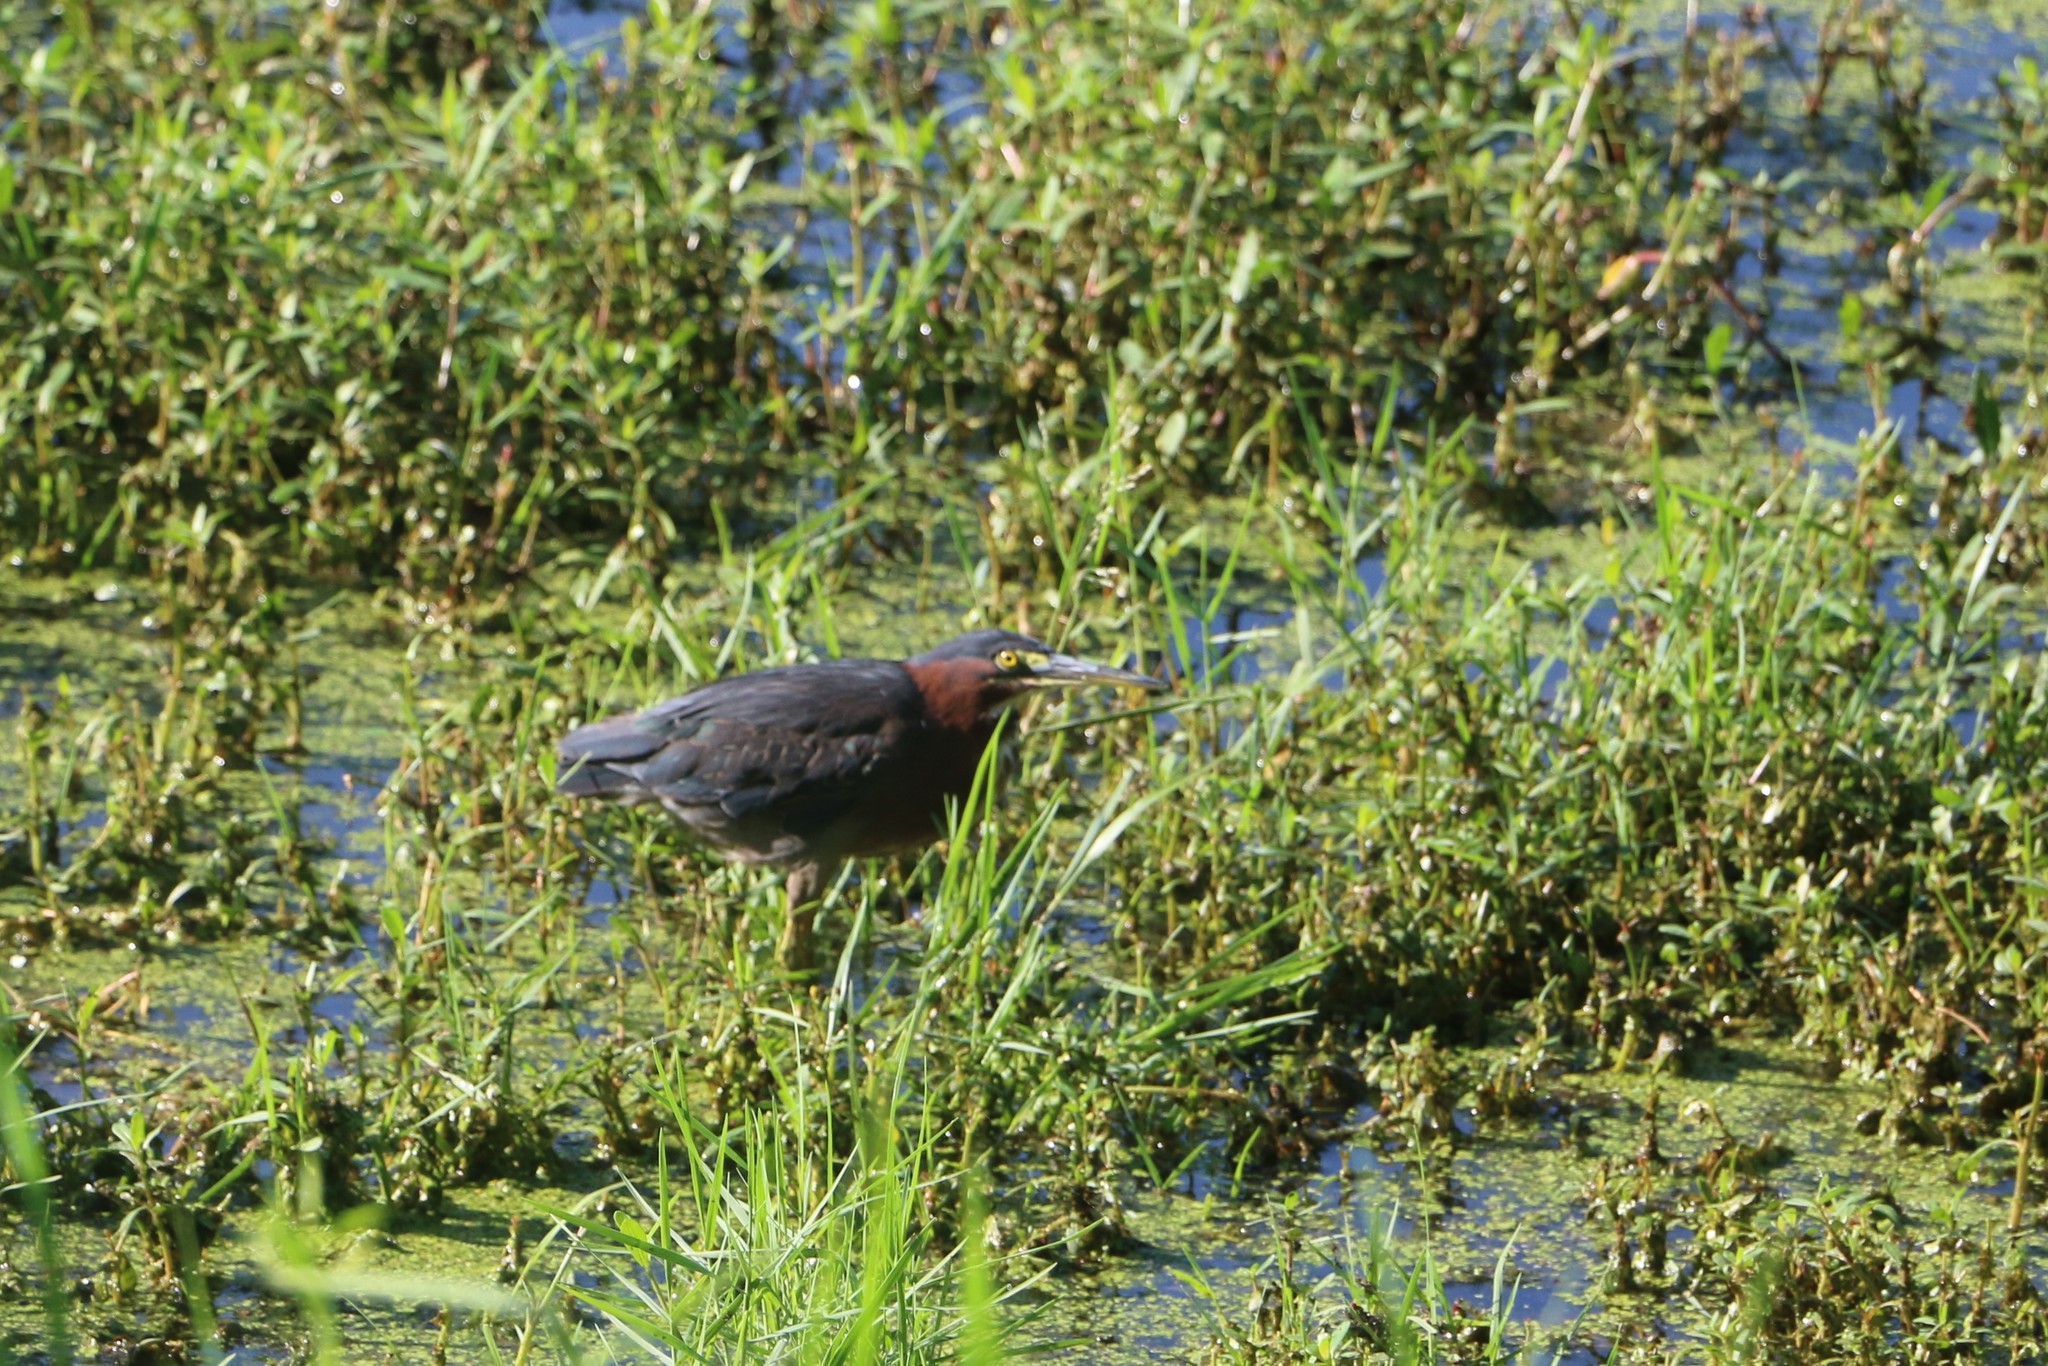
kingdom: Animalia
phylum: Chordata
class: Aves
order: Pelecaniformes
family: Ardeidae
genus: Butorides
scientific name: Butorides virescens
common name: Green heron
